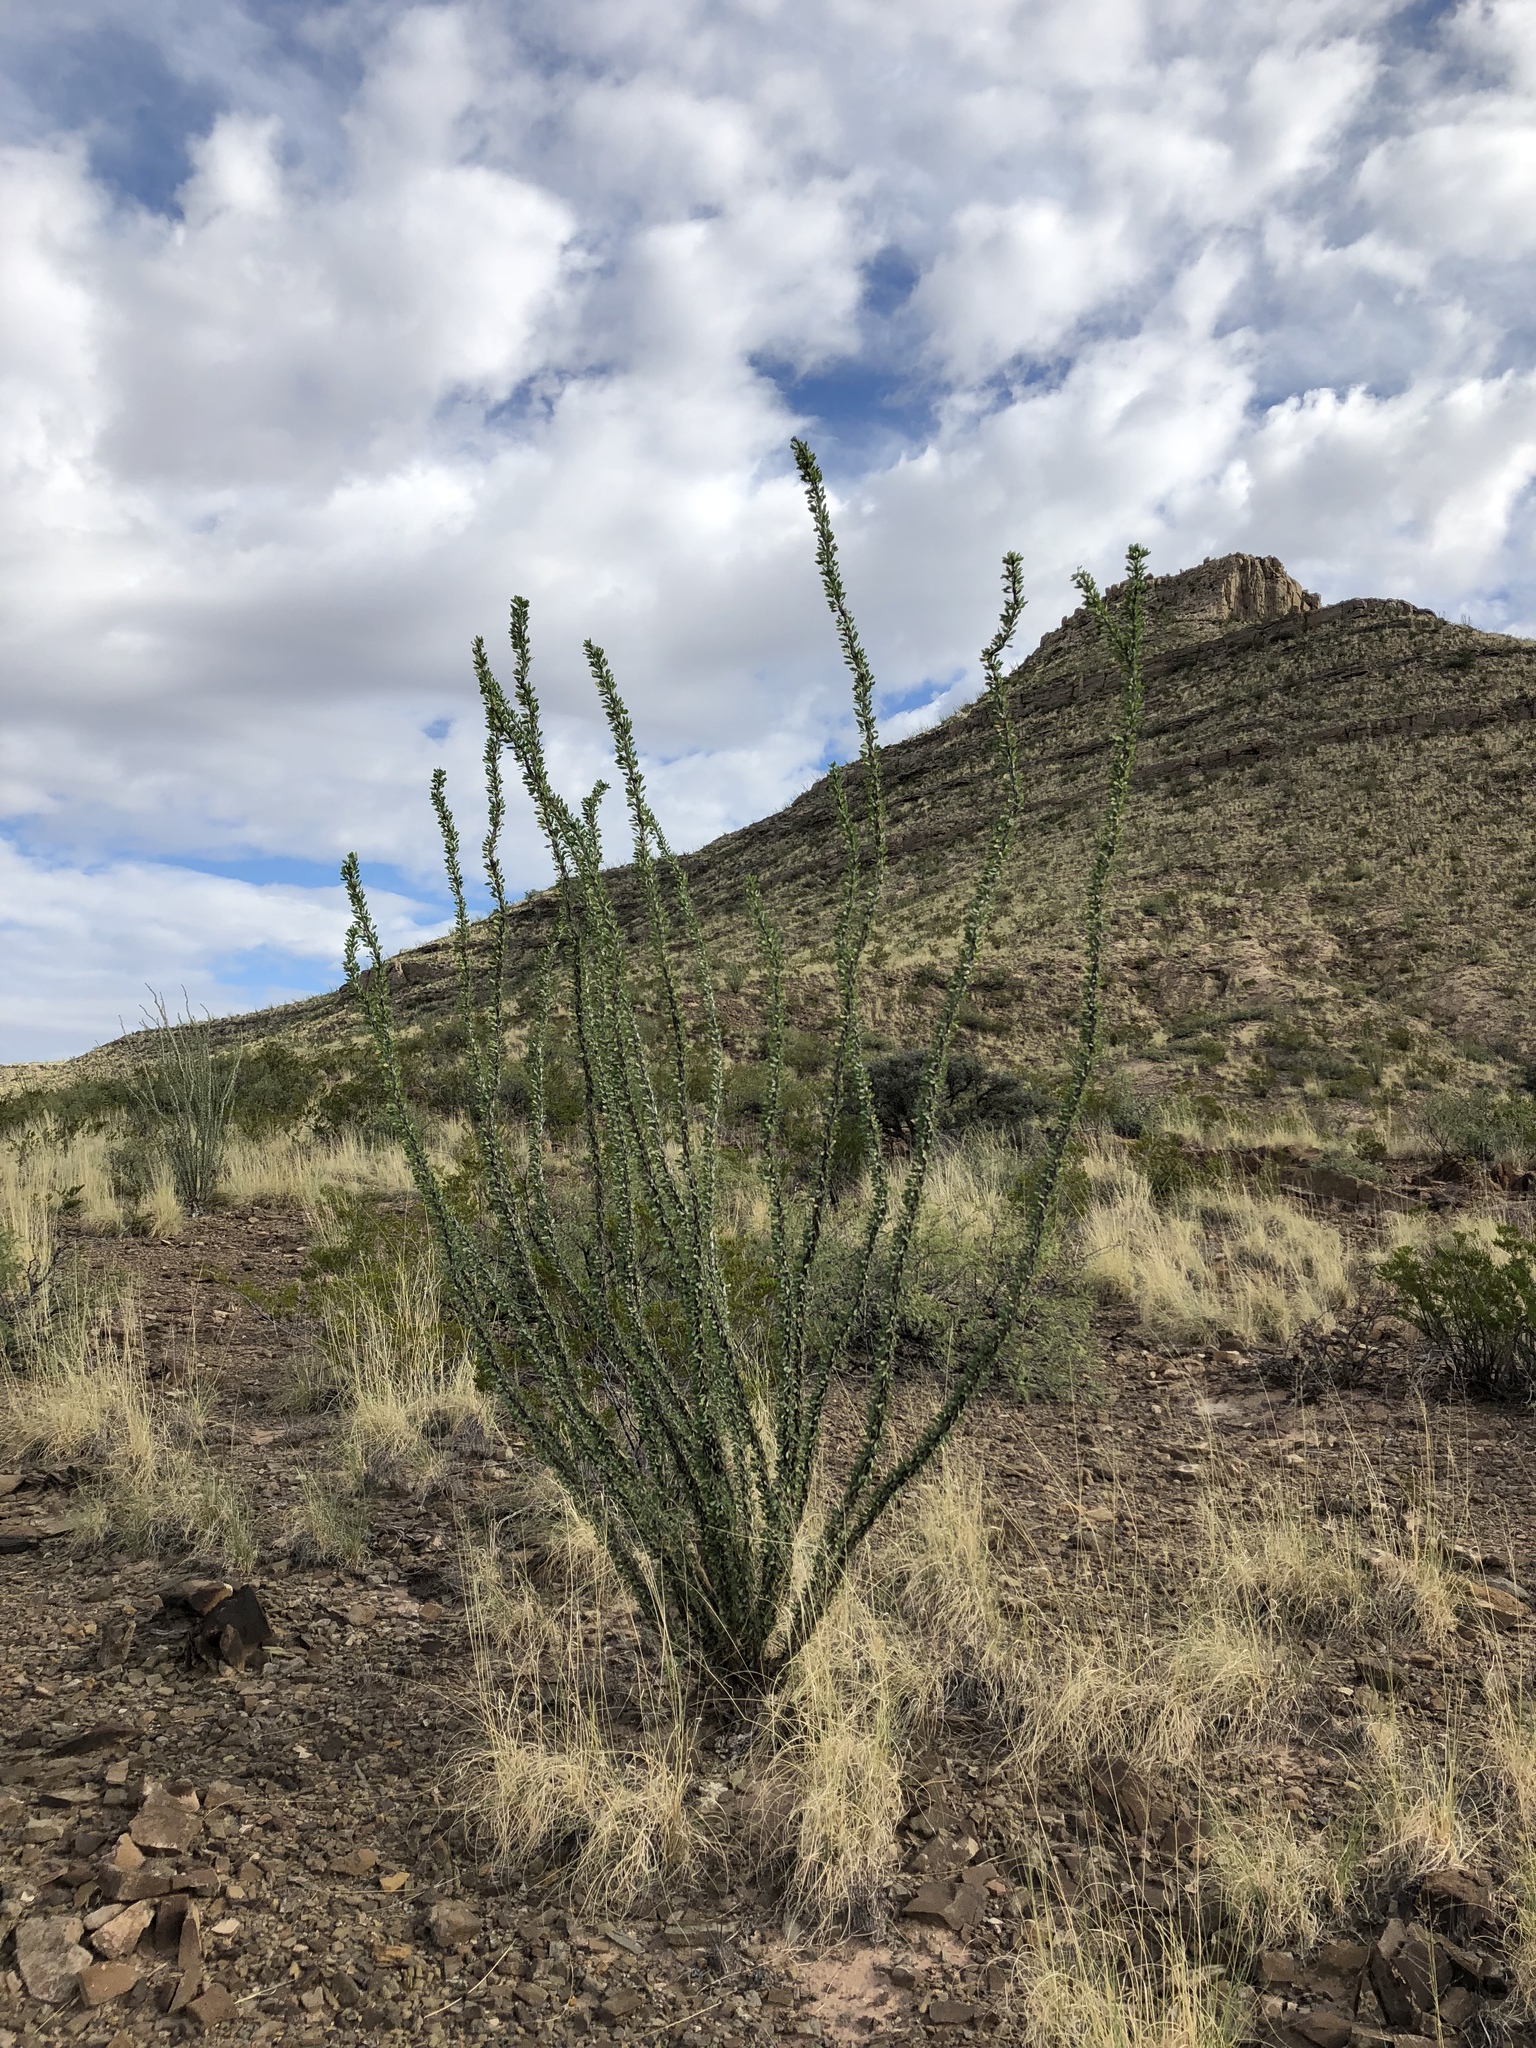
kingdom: Plantae
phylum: Tracheophyta
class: Magnoliopsida
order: Ericales
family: Fouquieriaceae
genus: Fouquieria
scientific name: Fouquieria splendens
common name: Vine-cactus
